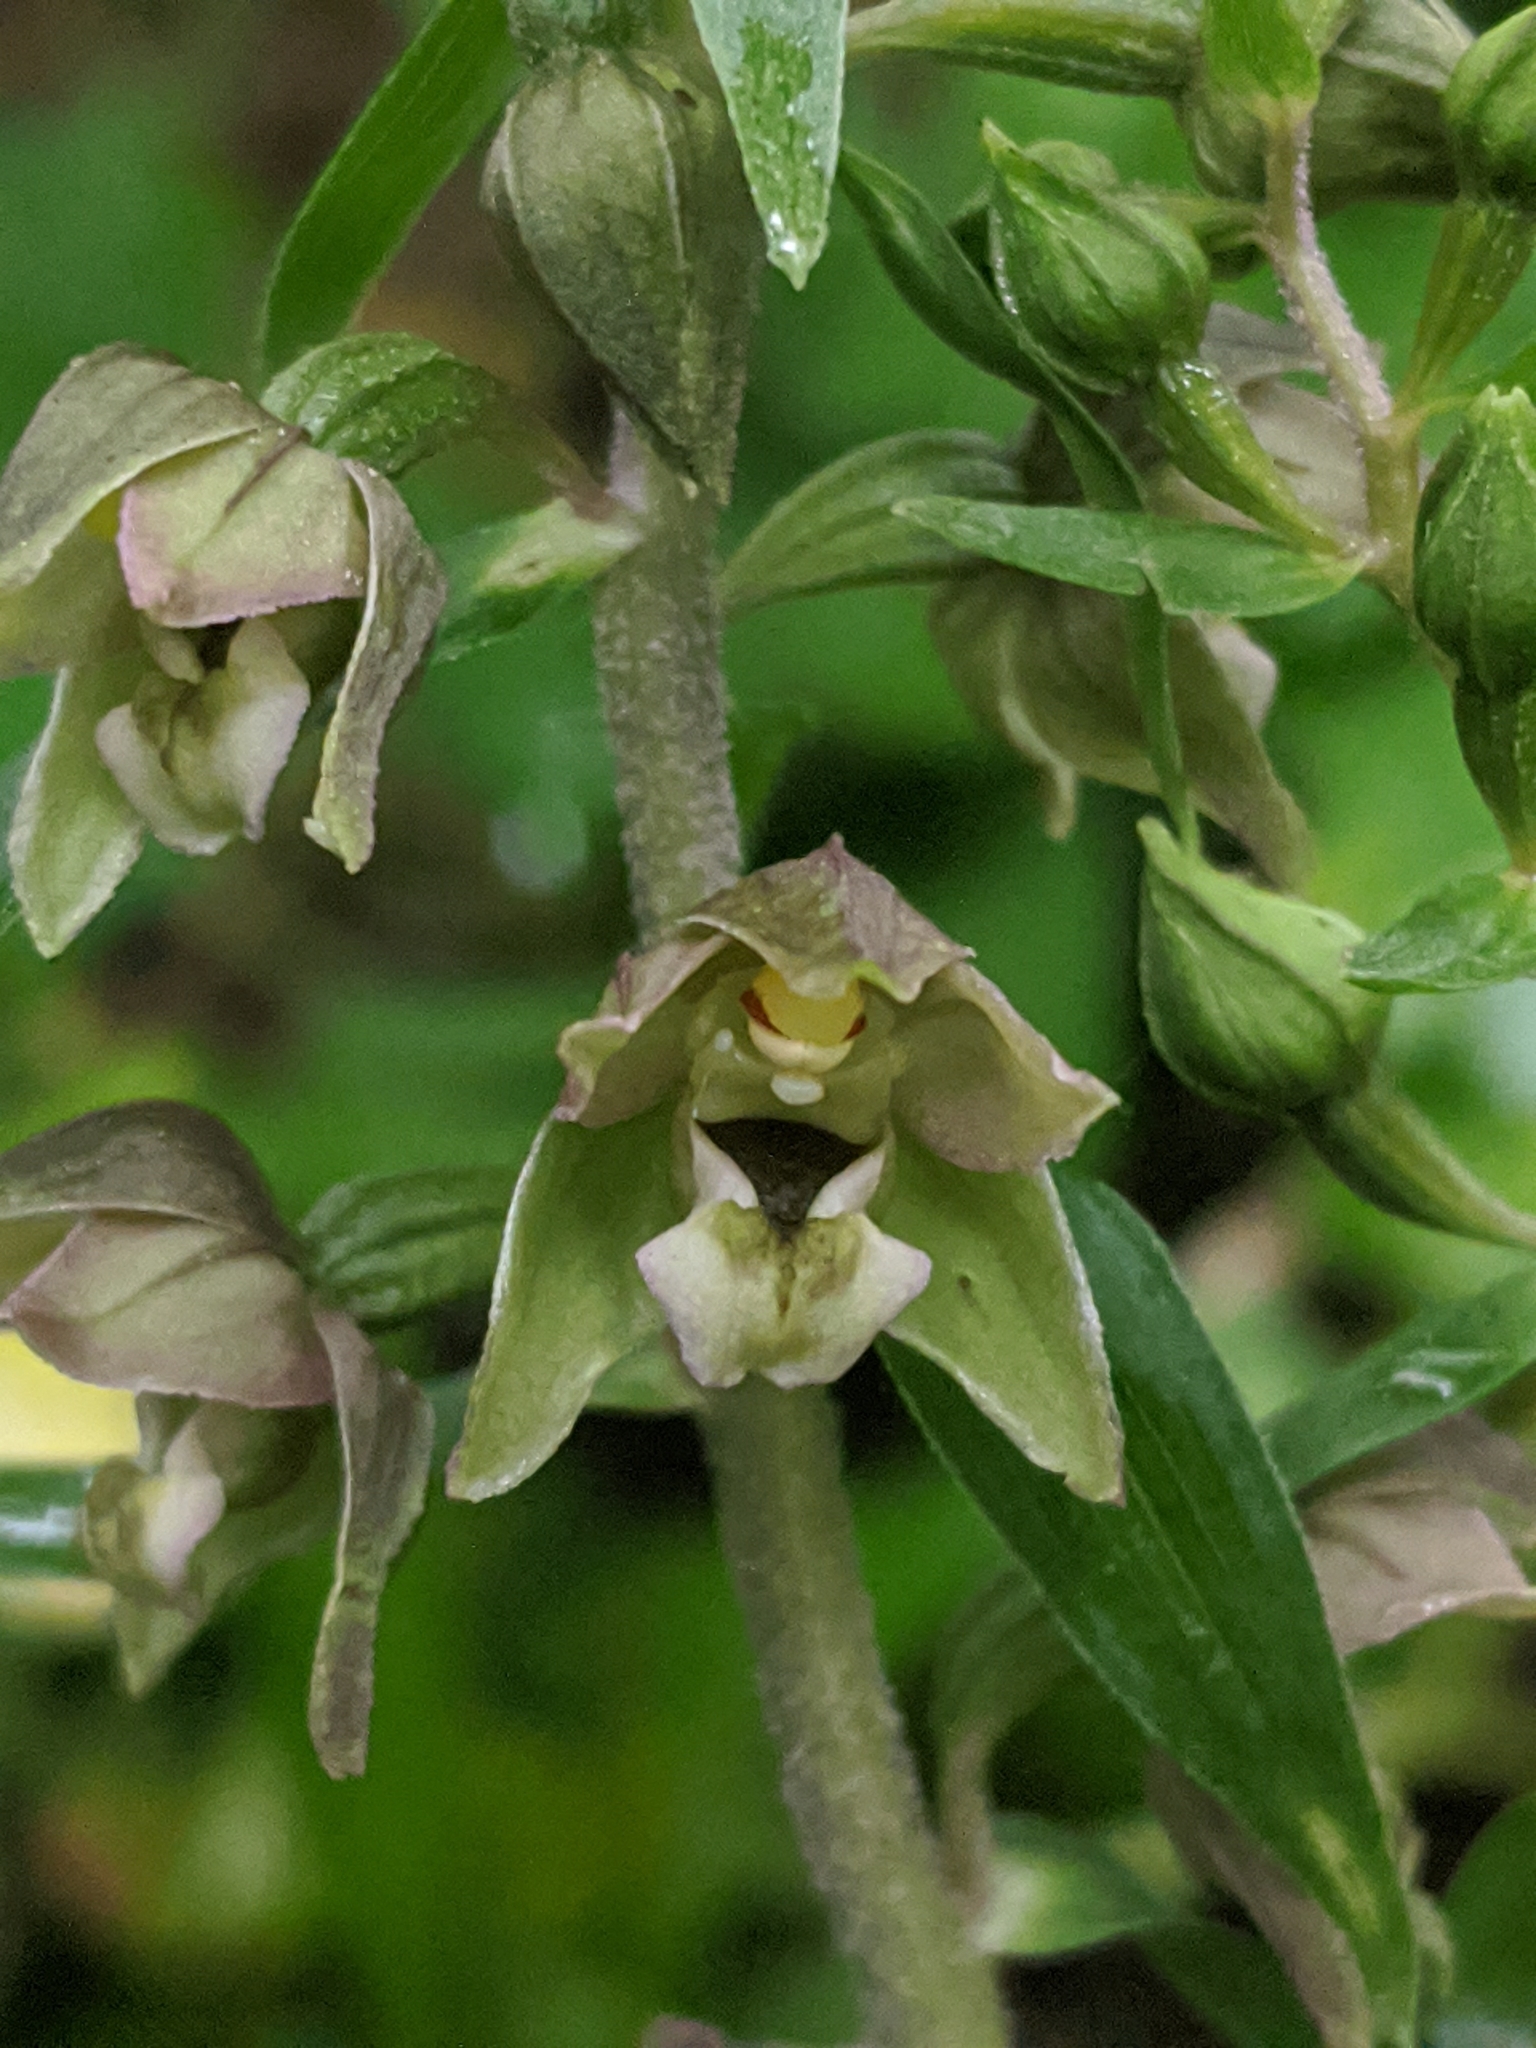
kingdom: Plantae
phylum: Tracheophyta
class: Liliopsida
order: Asparagales
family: Orchidaceae
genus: Epipactis
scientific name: Epipactis helleborine
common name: Broad-leaved helleborine
